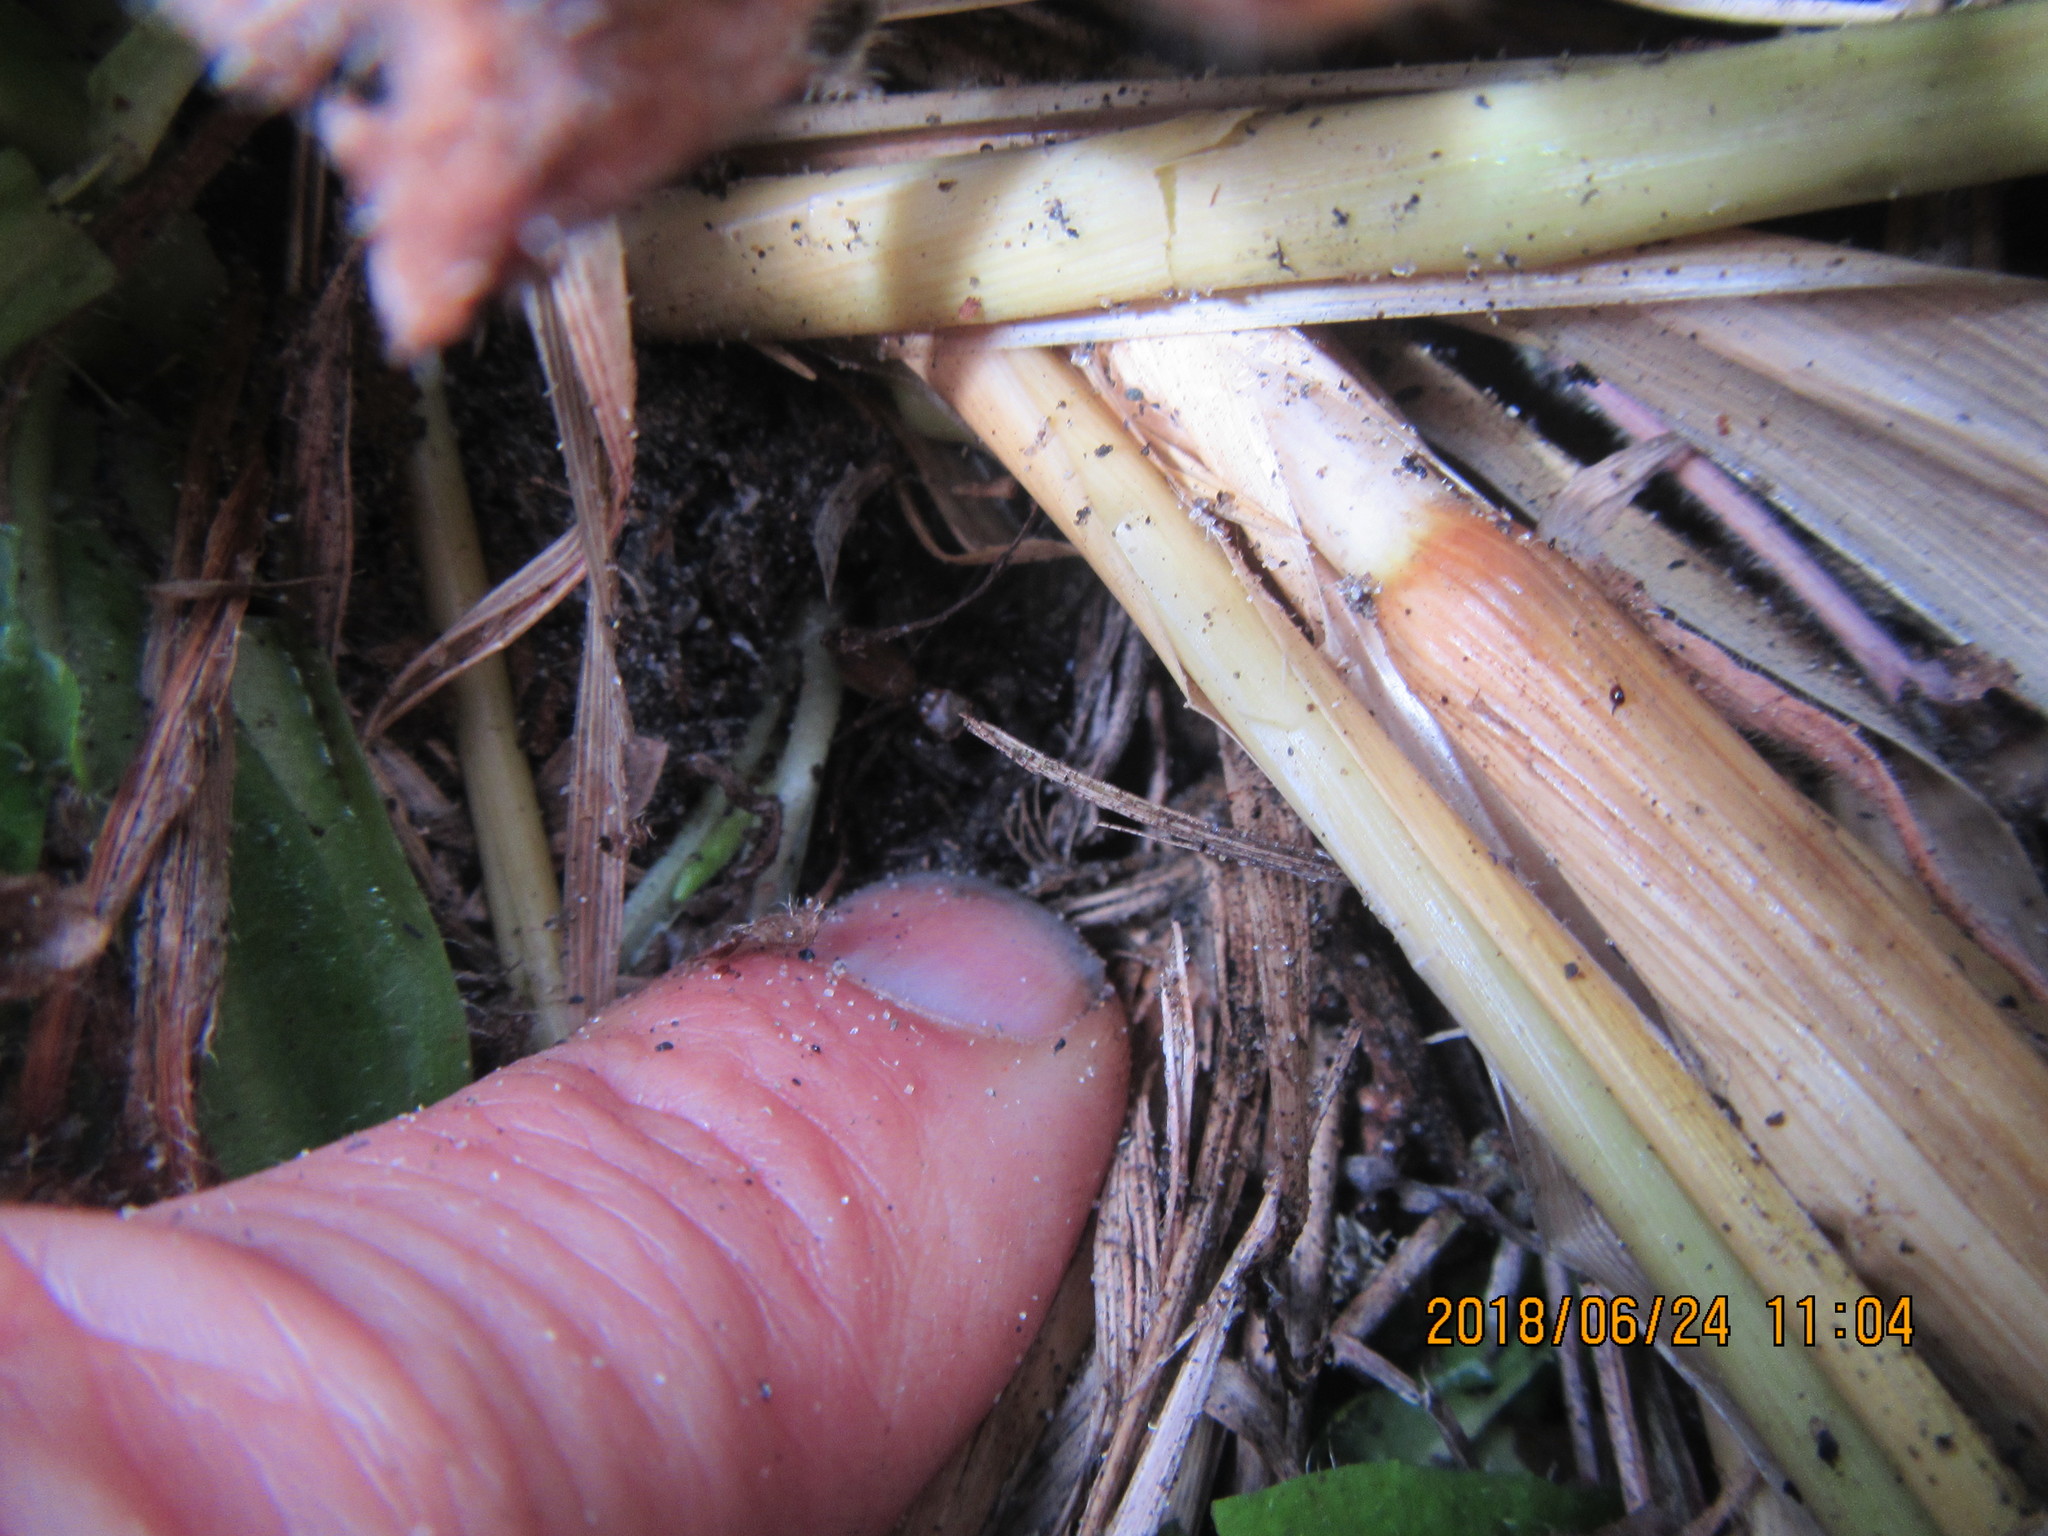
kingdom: Animalia
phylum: Arthropoda
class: Arachnida
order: Araneae
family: Salticidae
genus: Trite
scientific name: Trite auricoma
